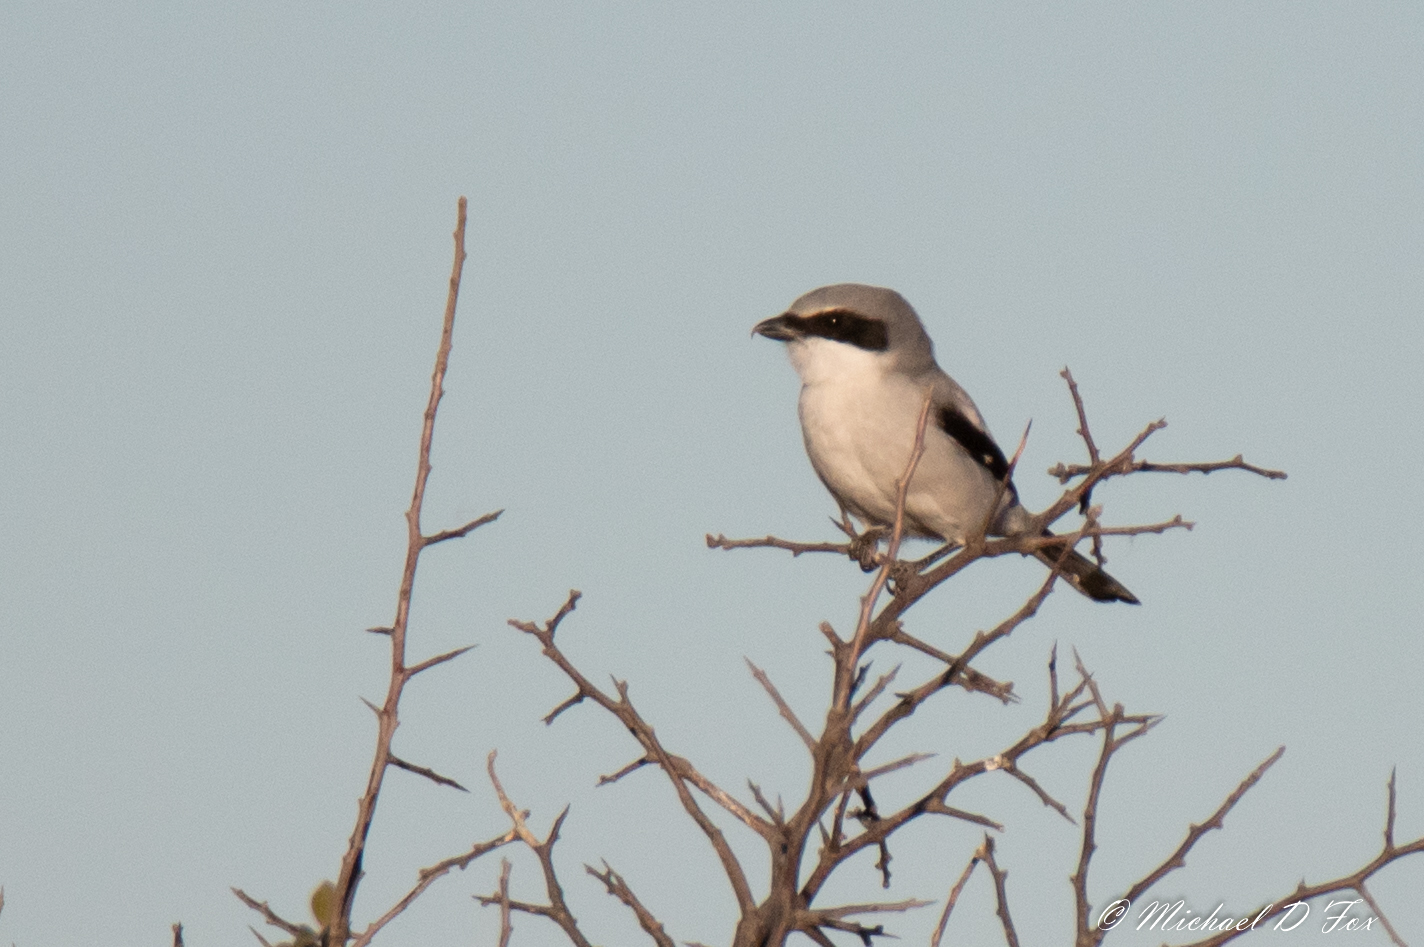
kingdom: Animalia
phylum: Chordata
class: Aves
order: Passeriformes
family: Laniidae
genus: Lanius
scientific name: Lanius ludovicianus
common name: Loggerhead shrike
